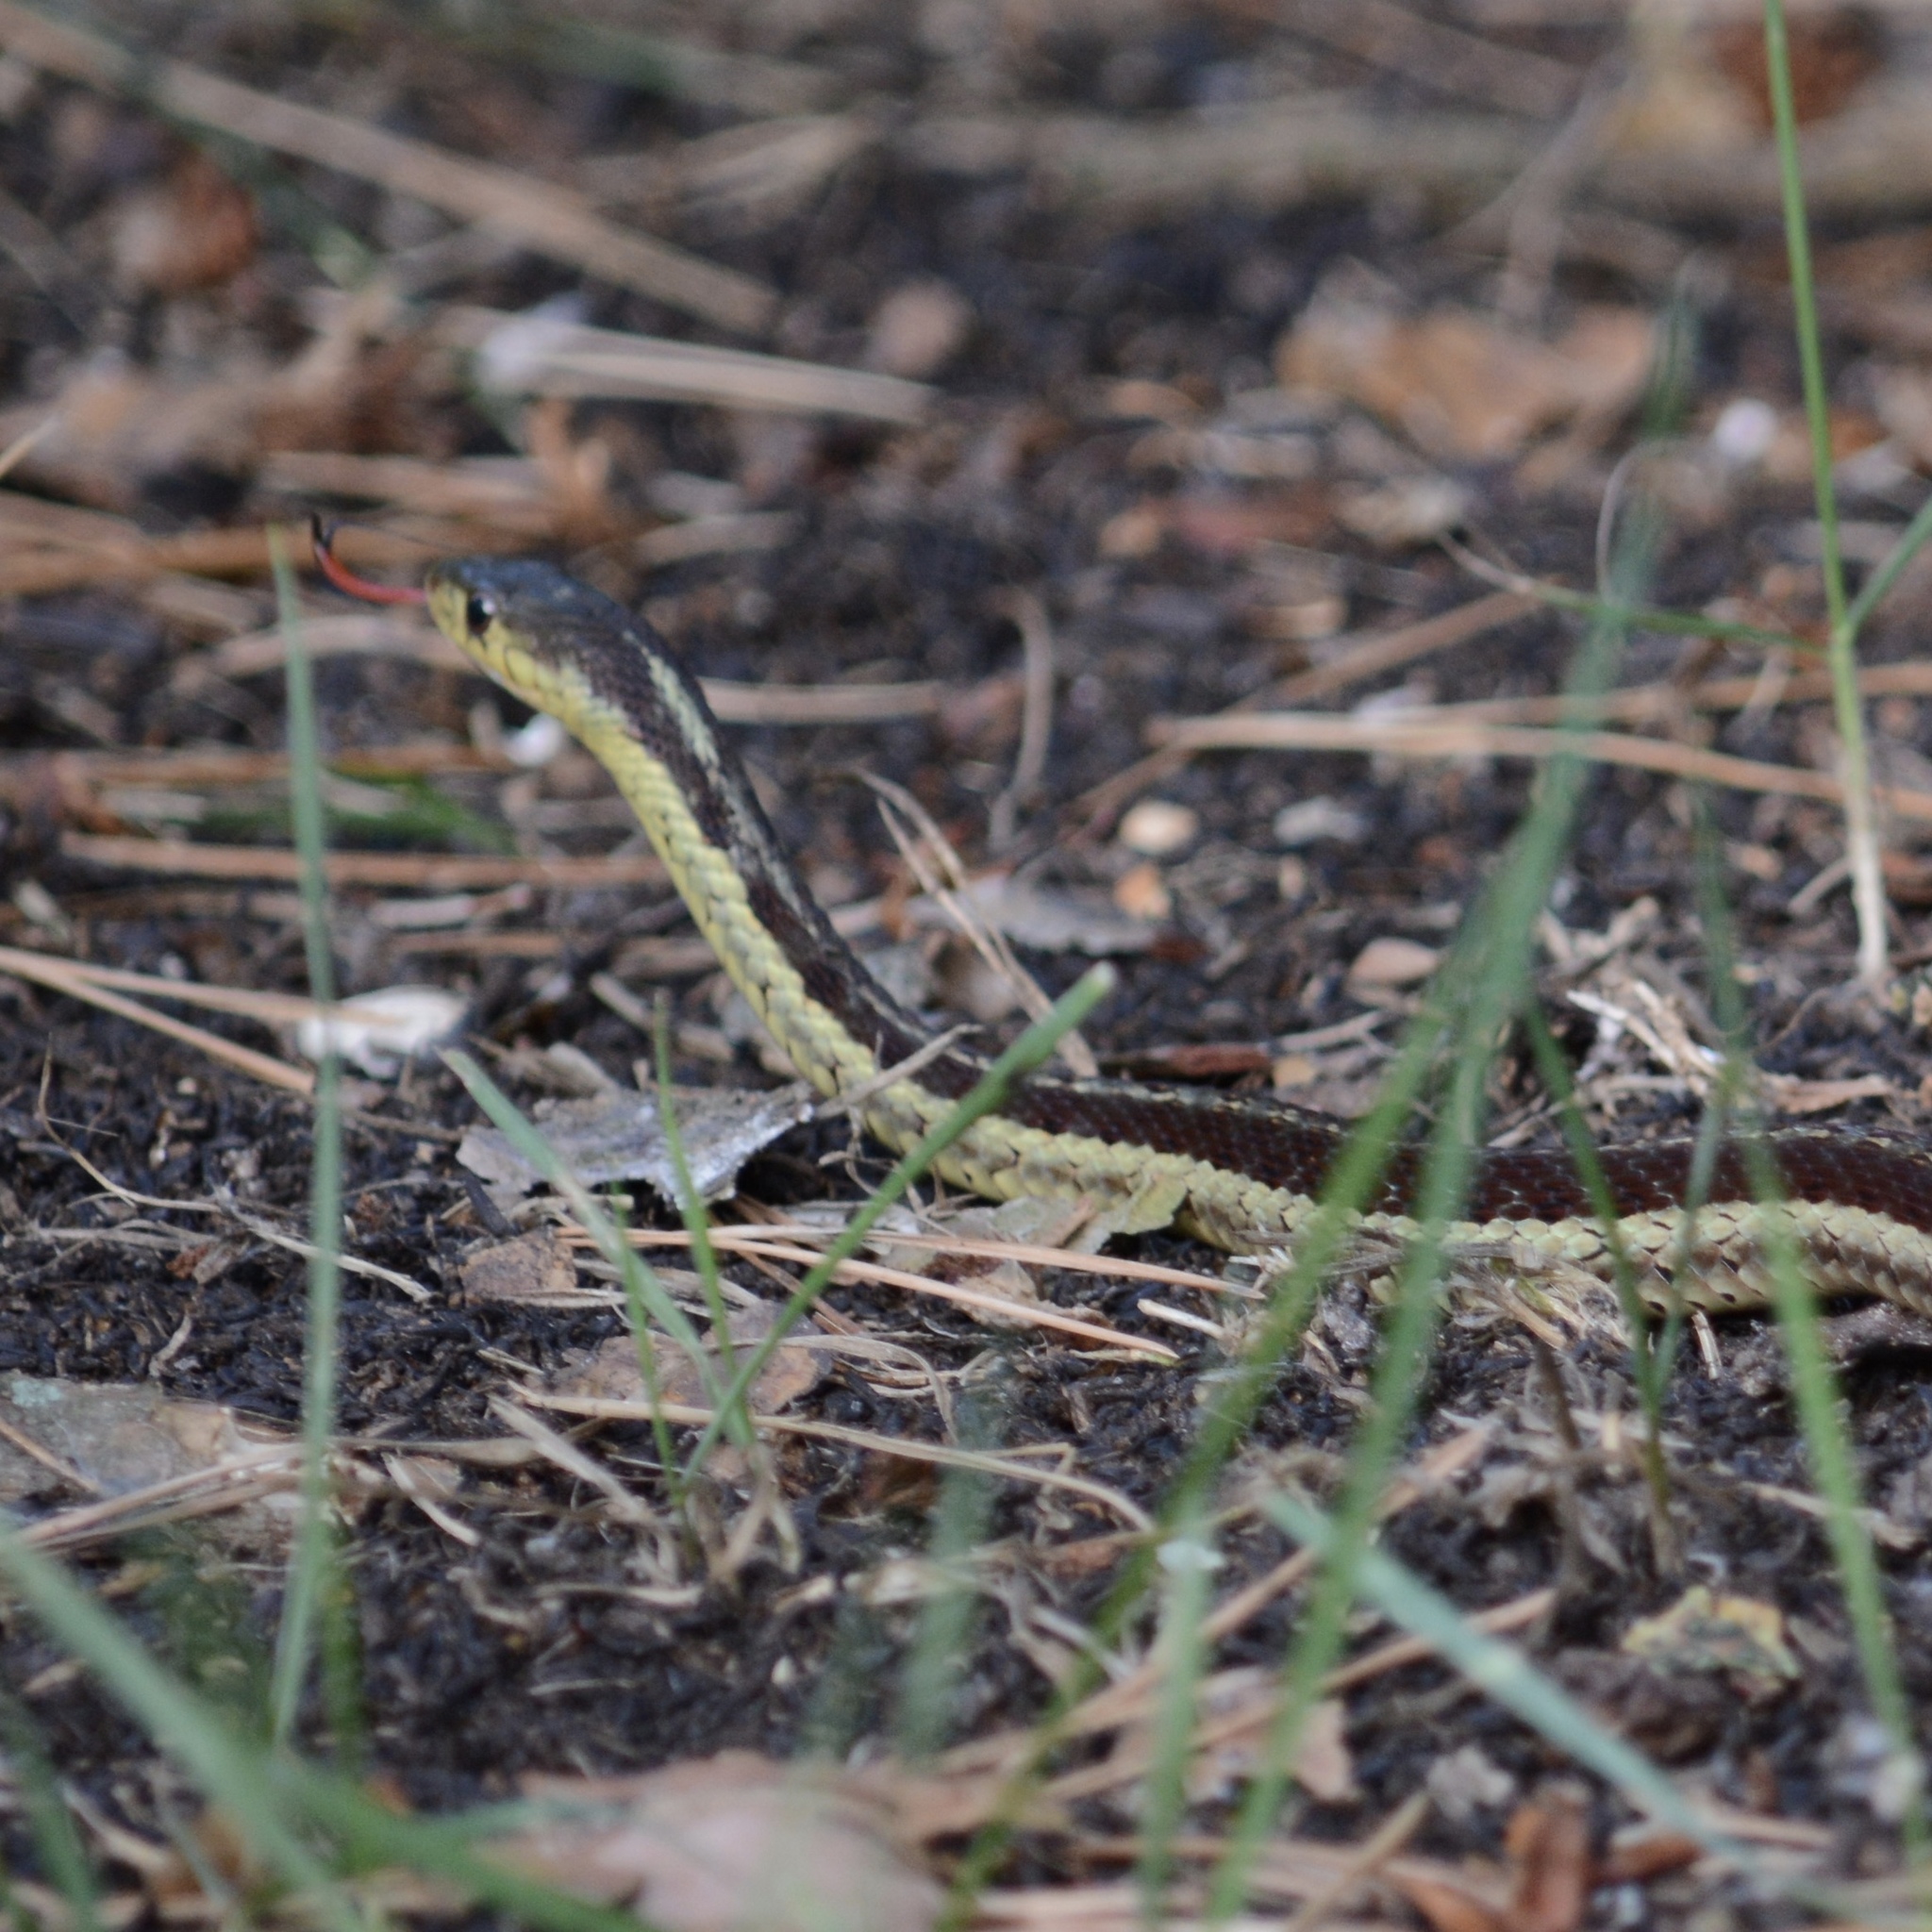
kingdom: Animalia
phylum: Chordata
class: Squamata
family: Colubridae
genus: Thamnophis
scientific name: Thamnophis sirtalis
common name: Common garter snake
